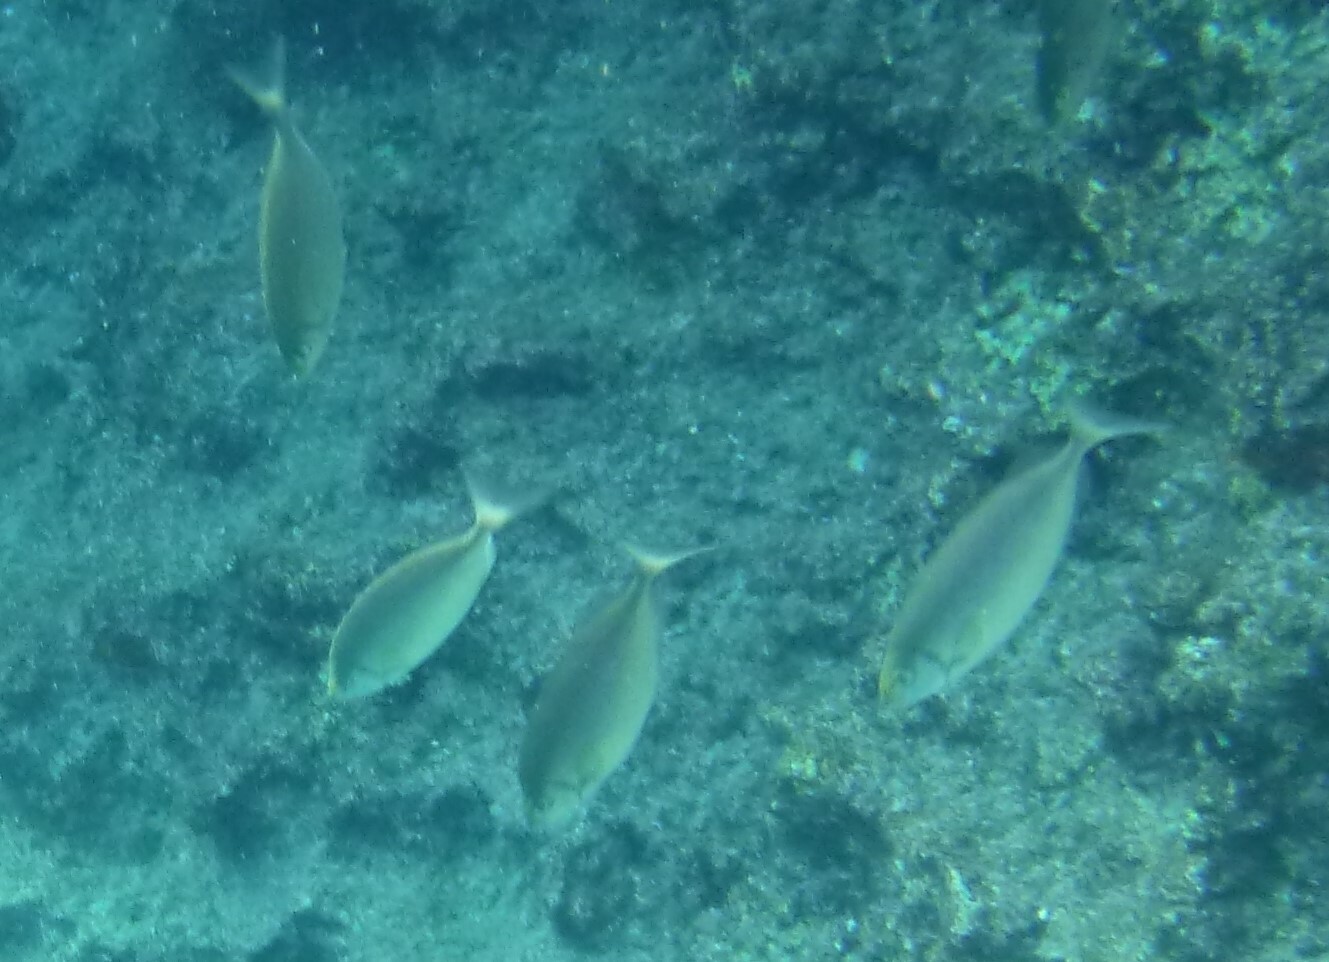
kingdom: Animalia
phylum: Chordata
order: Perciformes
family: Siganidae
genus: Siganus
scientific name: Siganus rivulatus
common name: Marbled spinefoot
